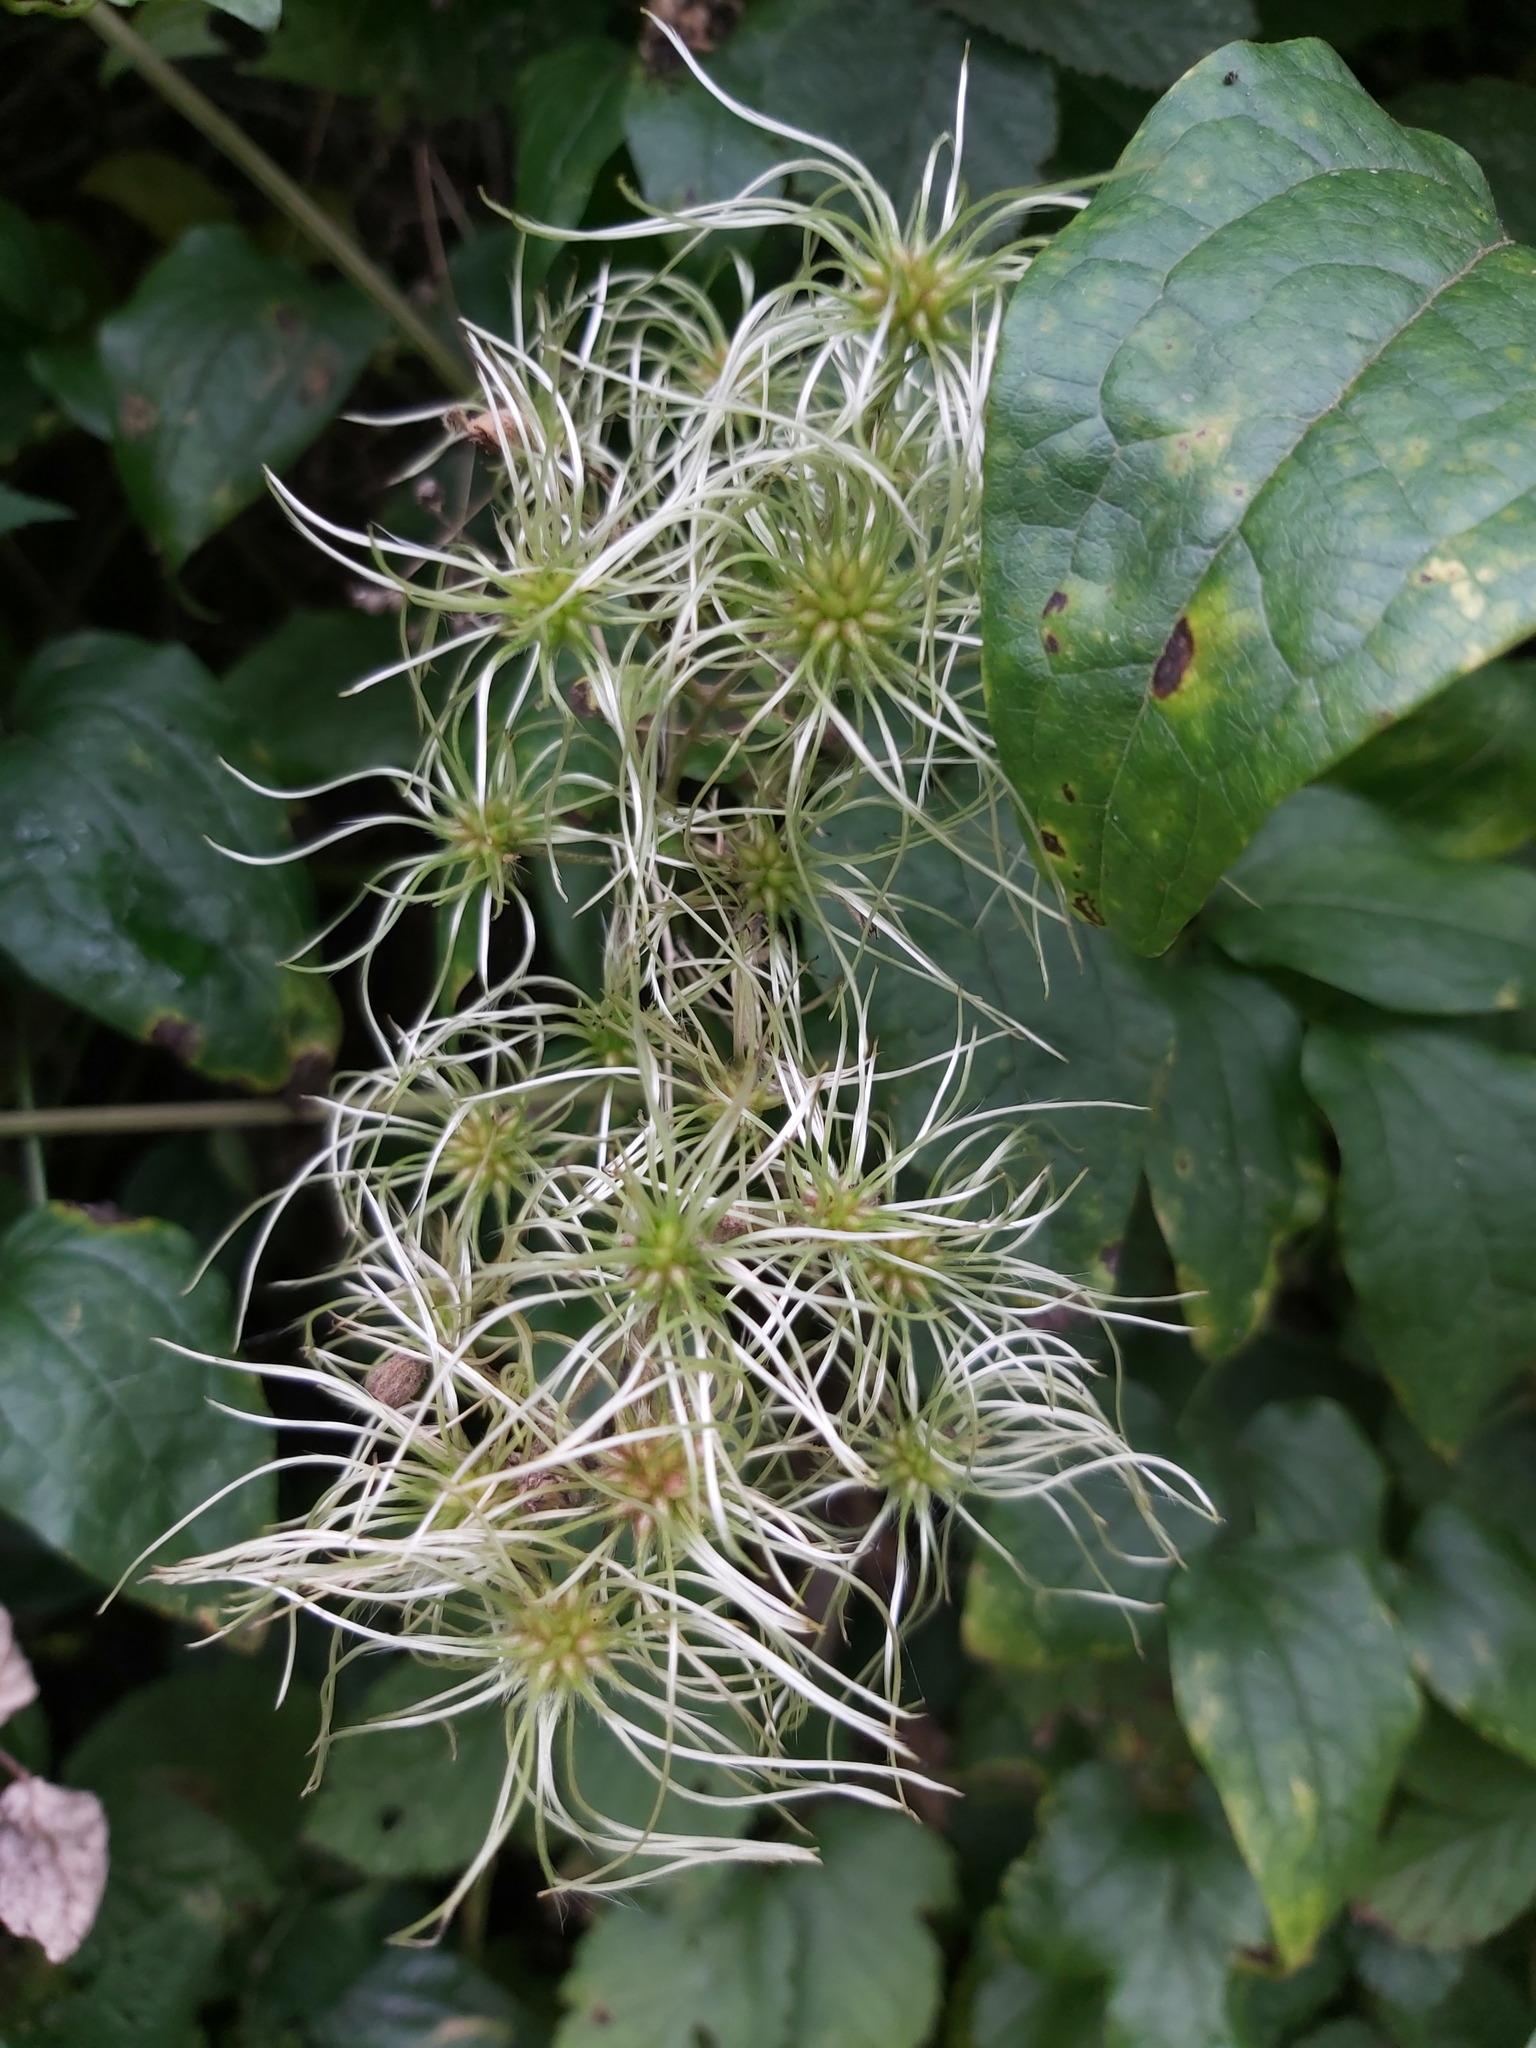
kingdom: Plantae
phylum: Tracheophyta
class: Magnoliopsida
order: Ranunculales
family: Ranunculaceae
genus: Clematis
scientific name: Clematis vitalba
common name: Evergreen clematis
